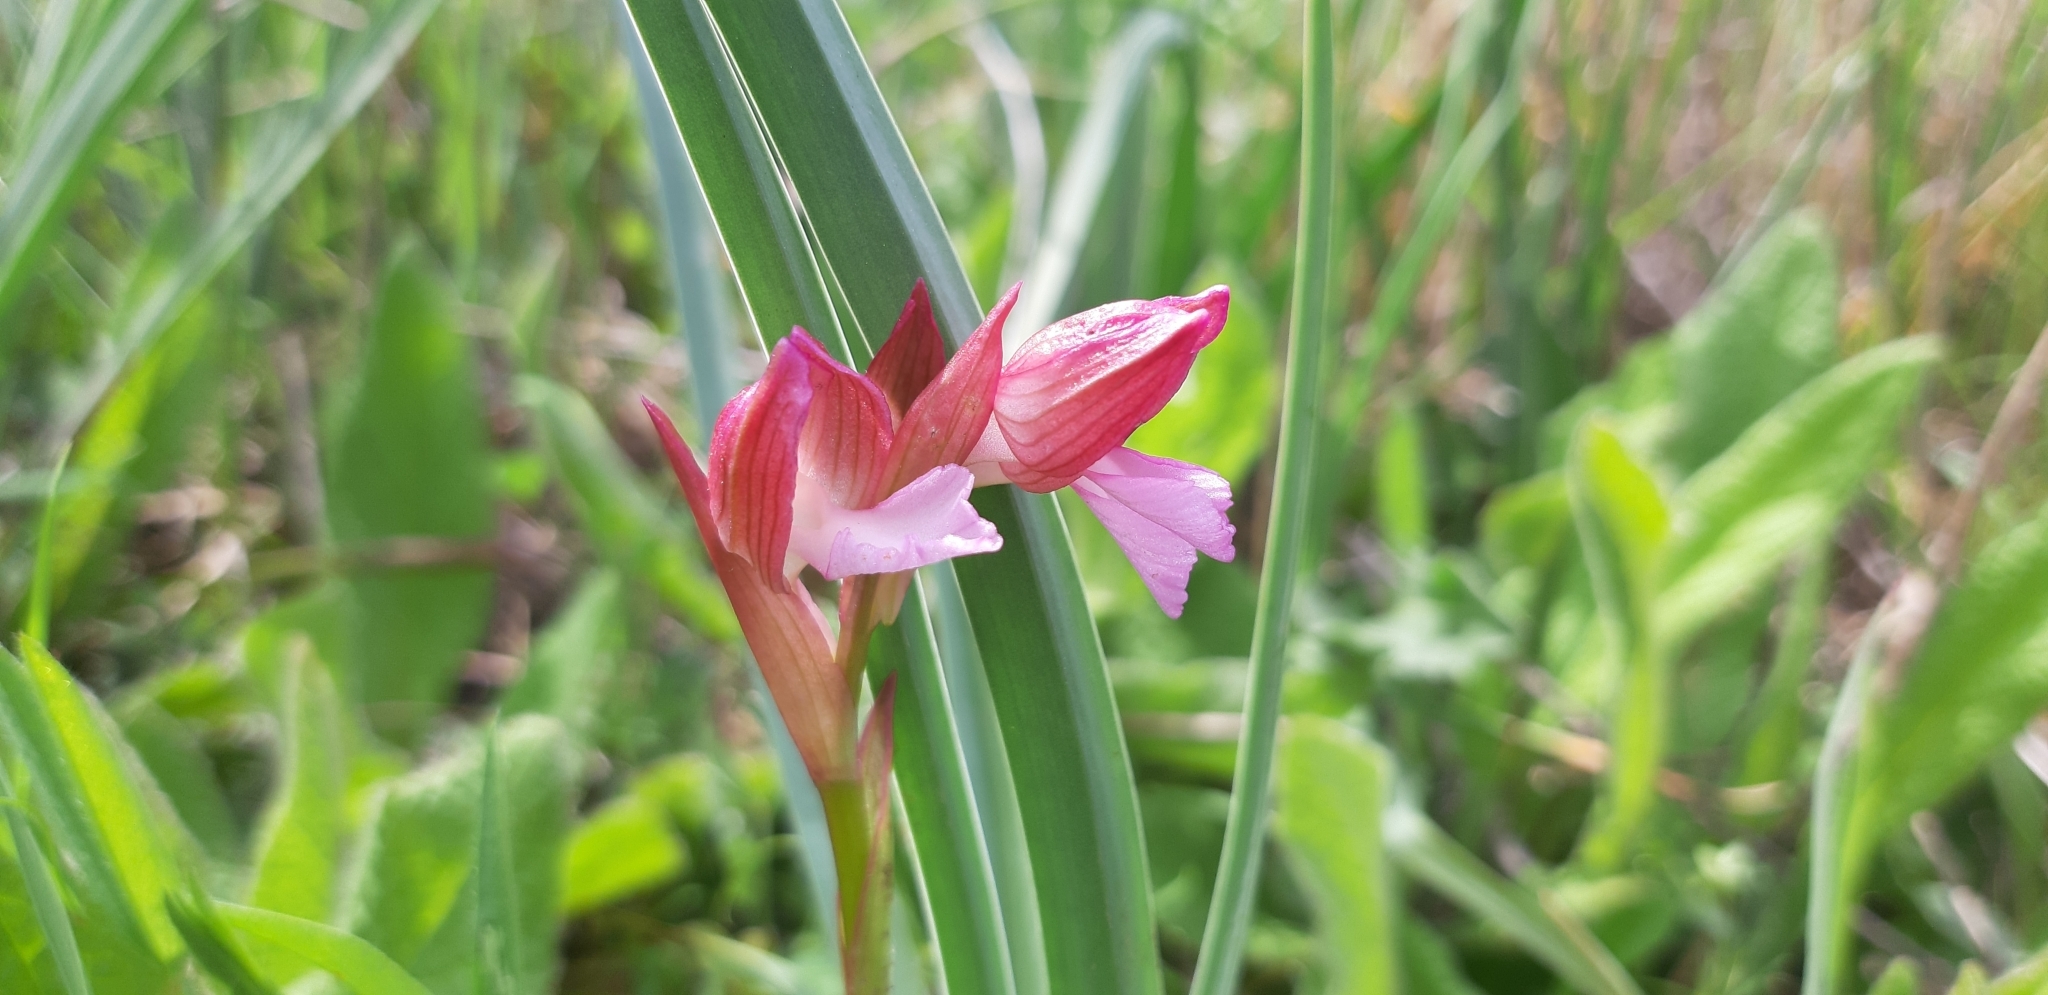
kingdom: Plantae
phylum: Tracheophyta
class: Liliopsida
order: Asparagales
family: Orchidaceae
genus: Anacamptis
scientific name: Anacamptis papilionacea
